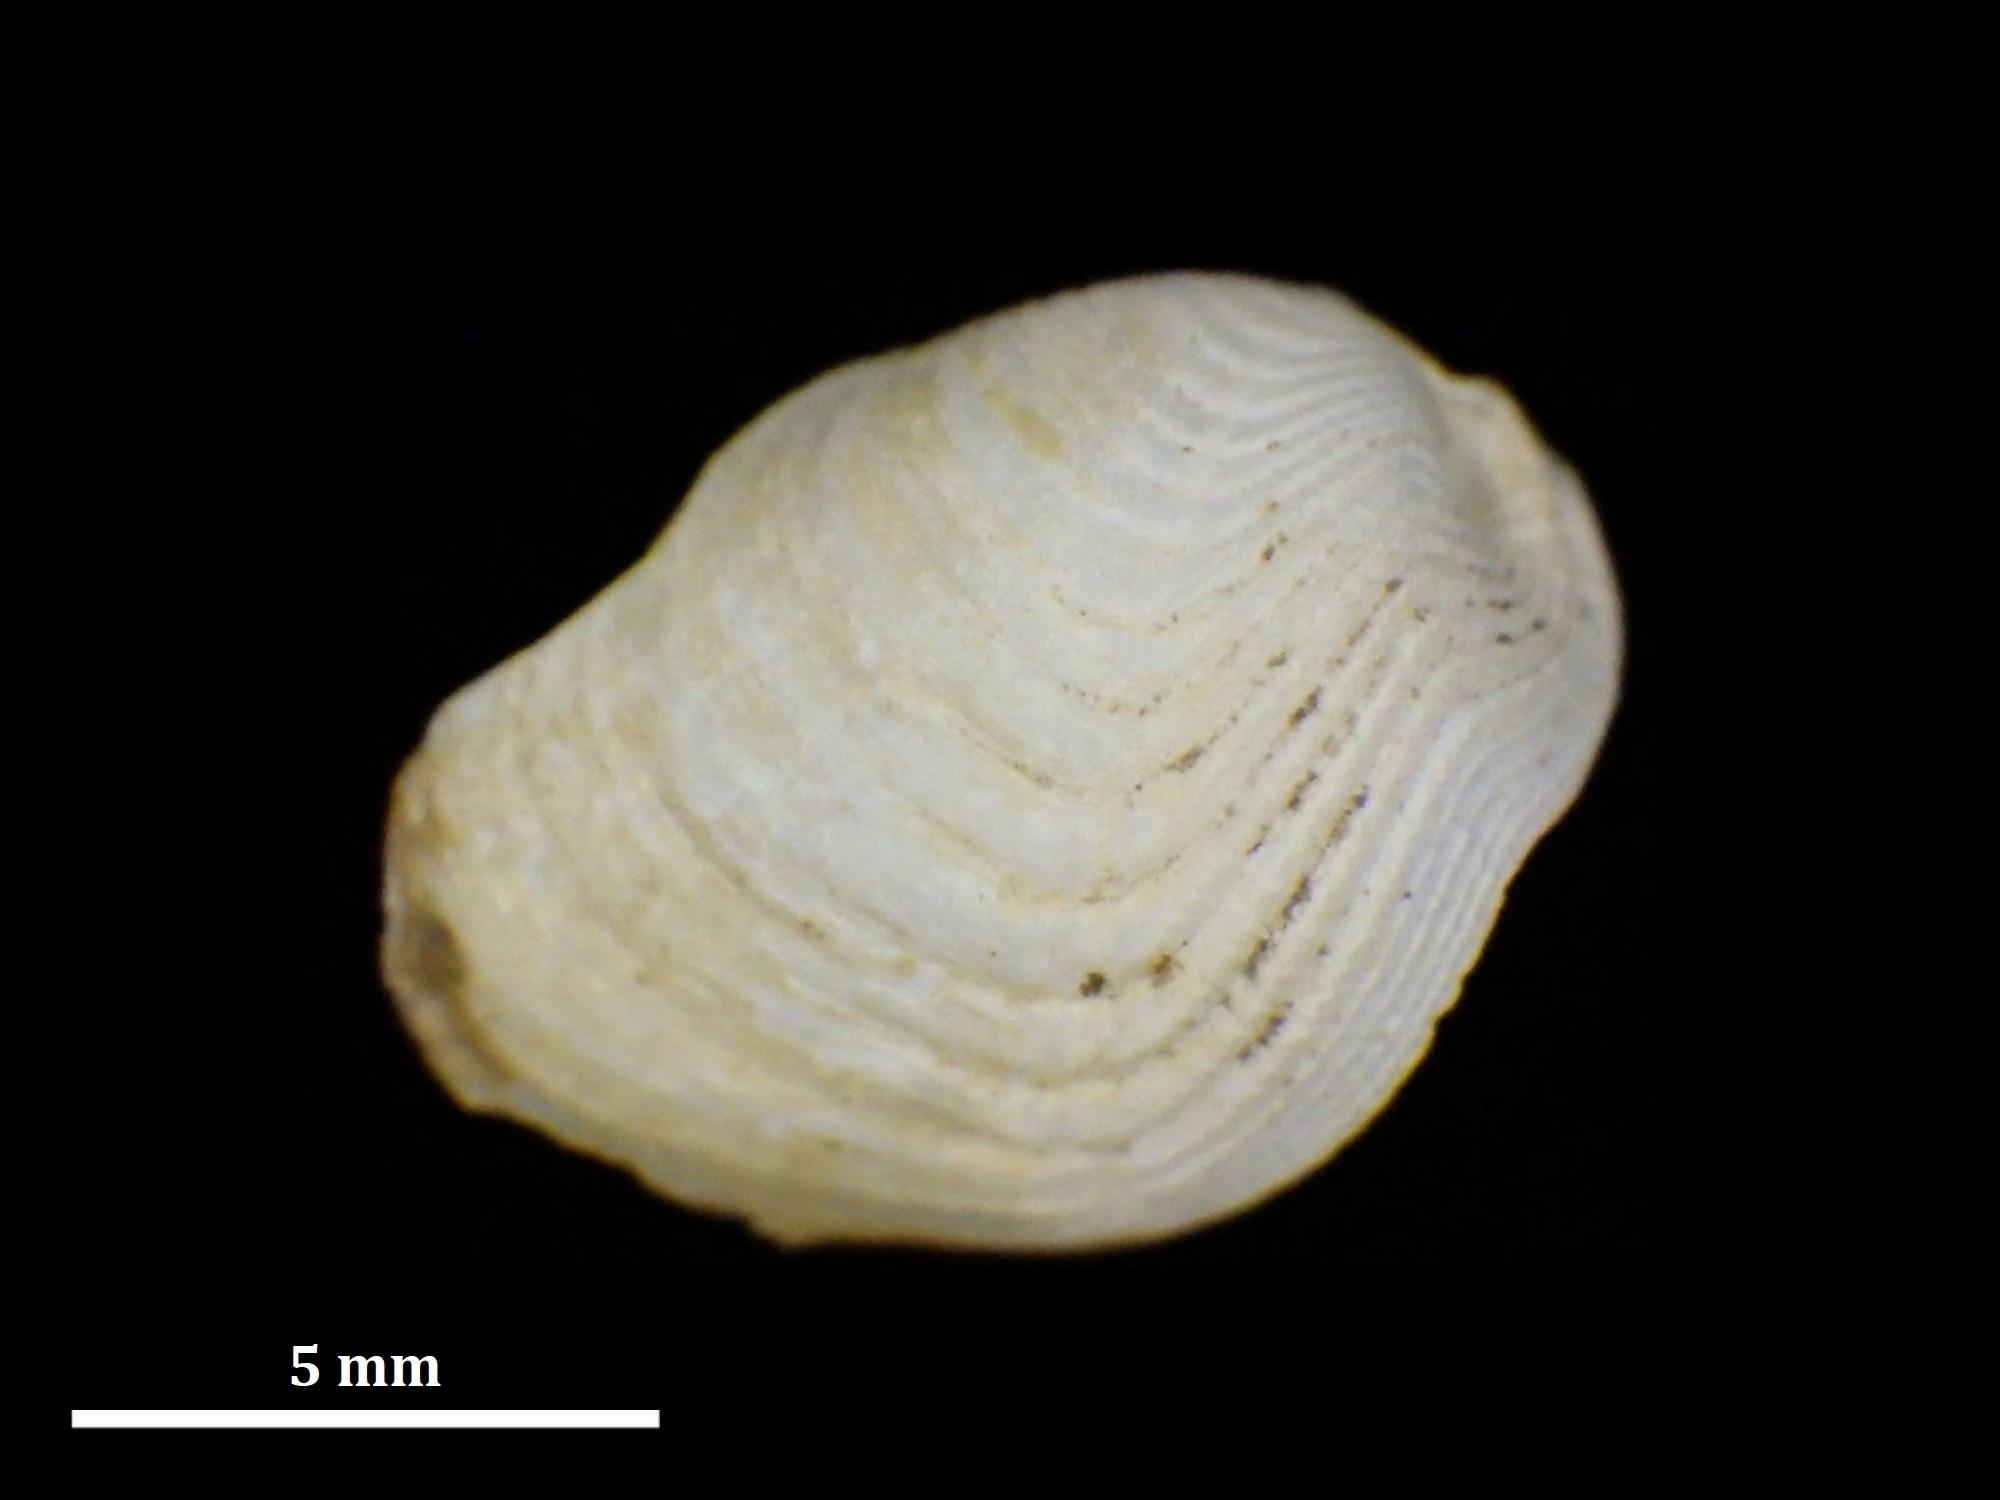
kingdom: Animalia
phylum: Mollusca
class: Bivalvia
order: Myida
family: Pholadidae
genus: Martesia
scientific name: Martesia striata
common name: Striate piddock
